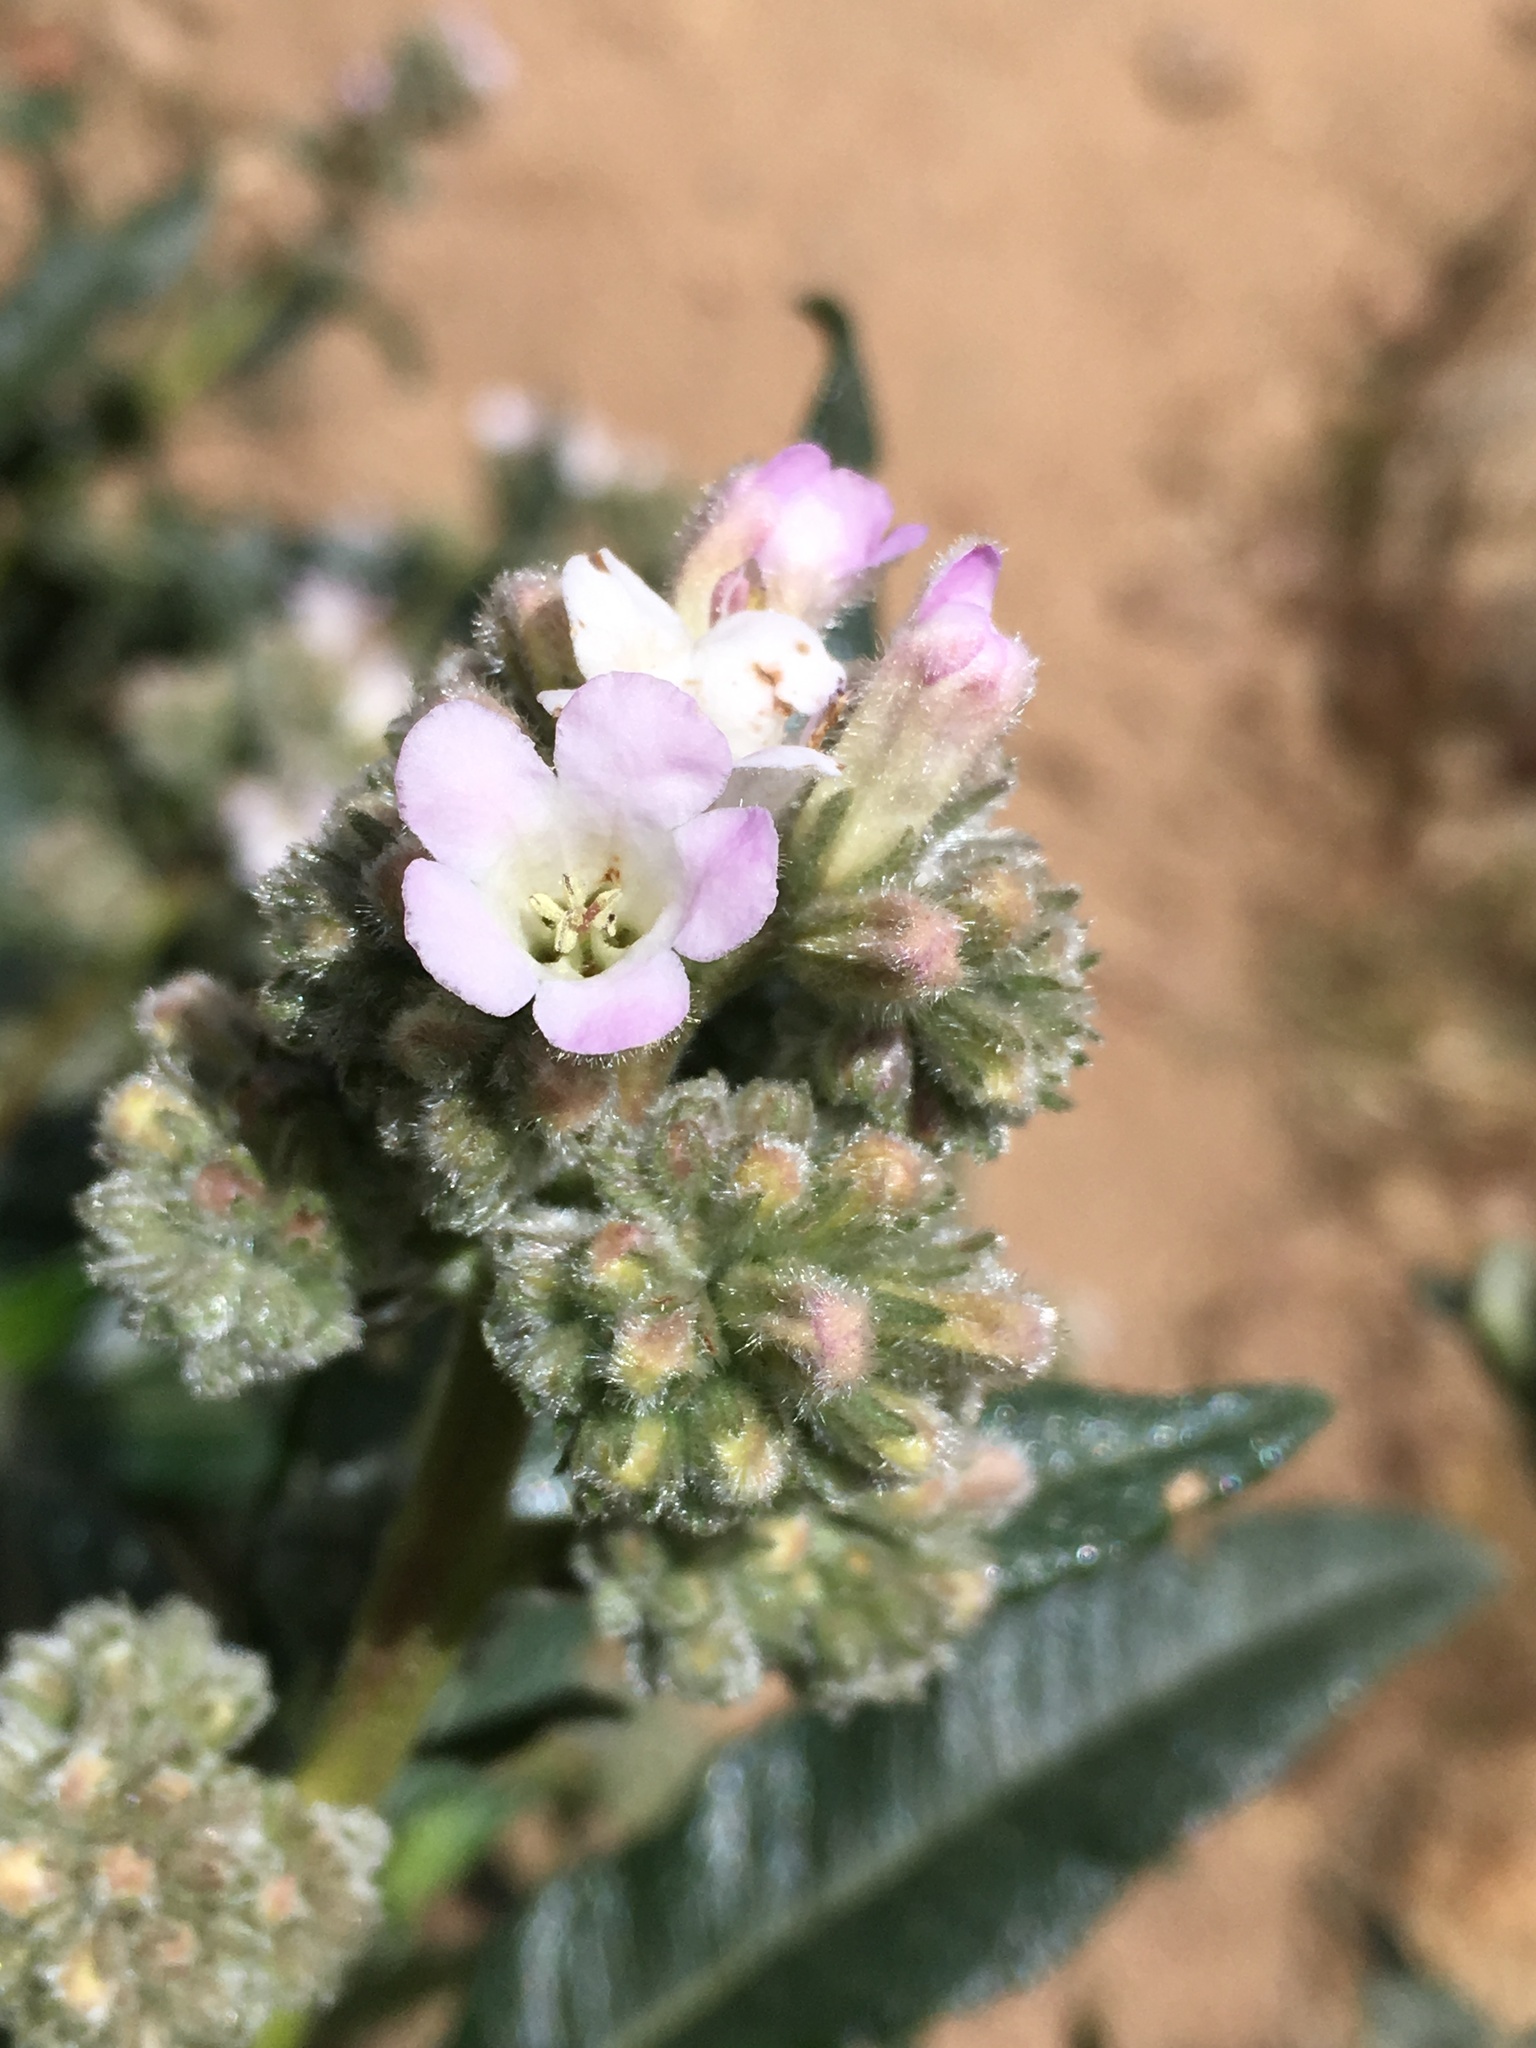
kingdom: Plantae
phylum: Tracheophyta
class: Magnoliopsida
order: Boraginales
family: Namaceae
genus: Eriodictyon
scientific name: Eriodictyon trichocalyx
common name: Hairy yerba-santa
